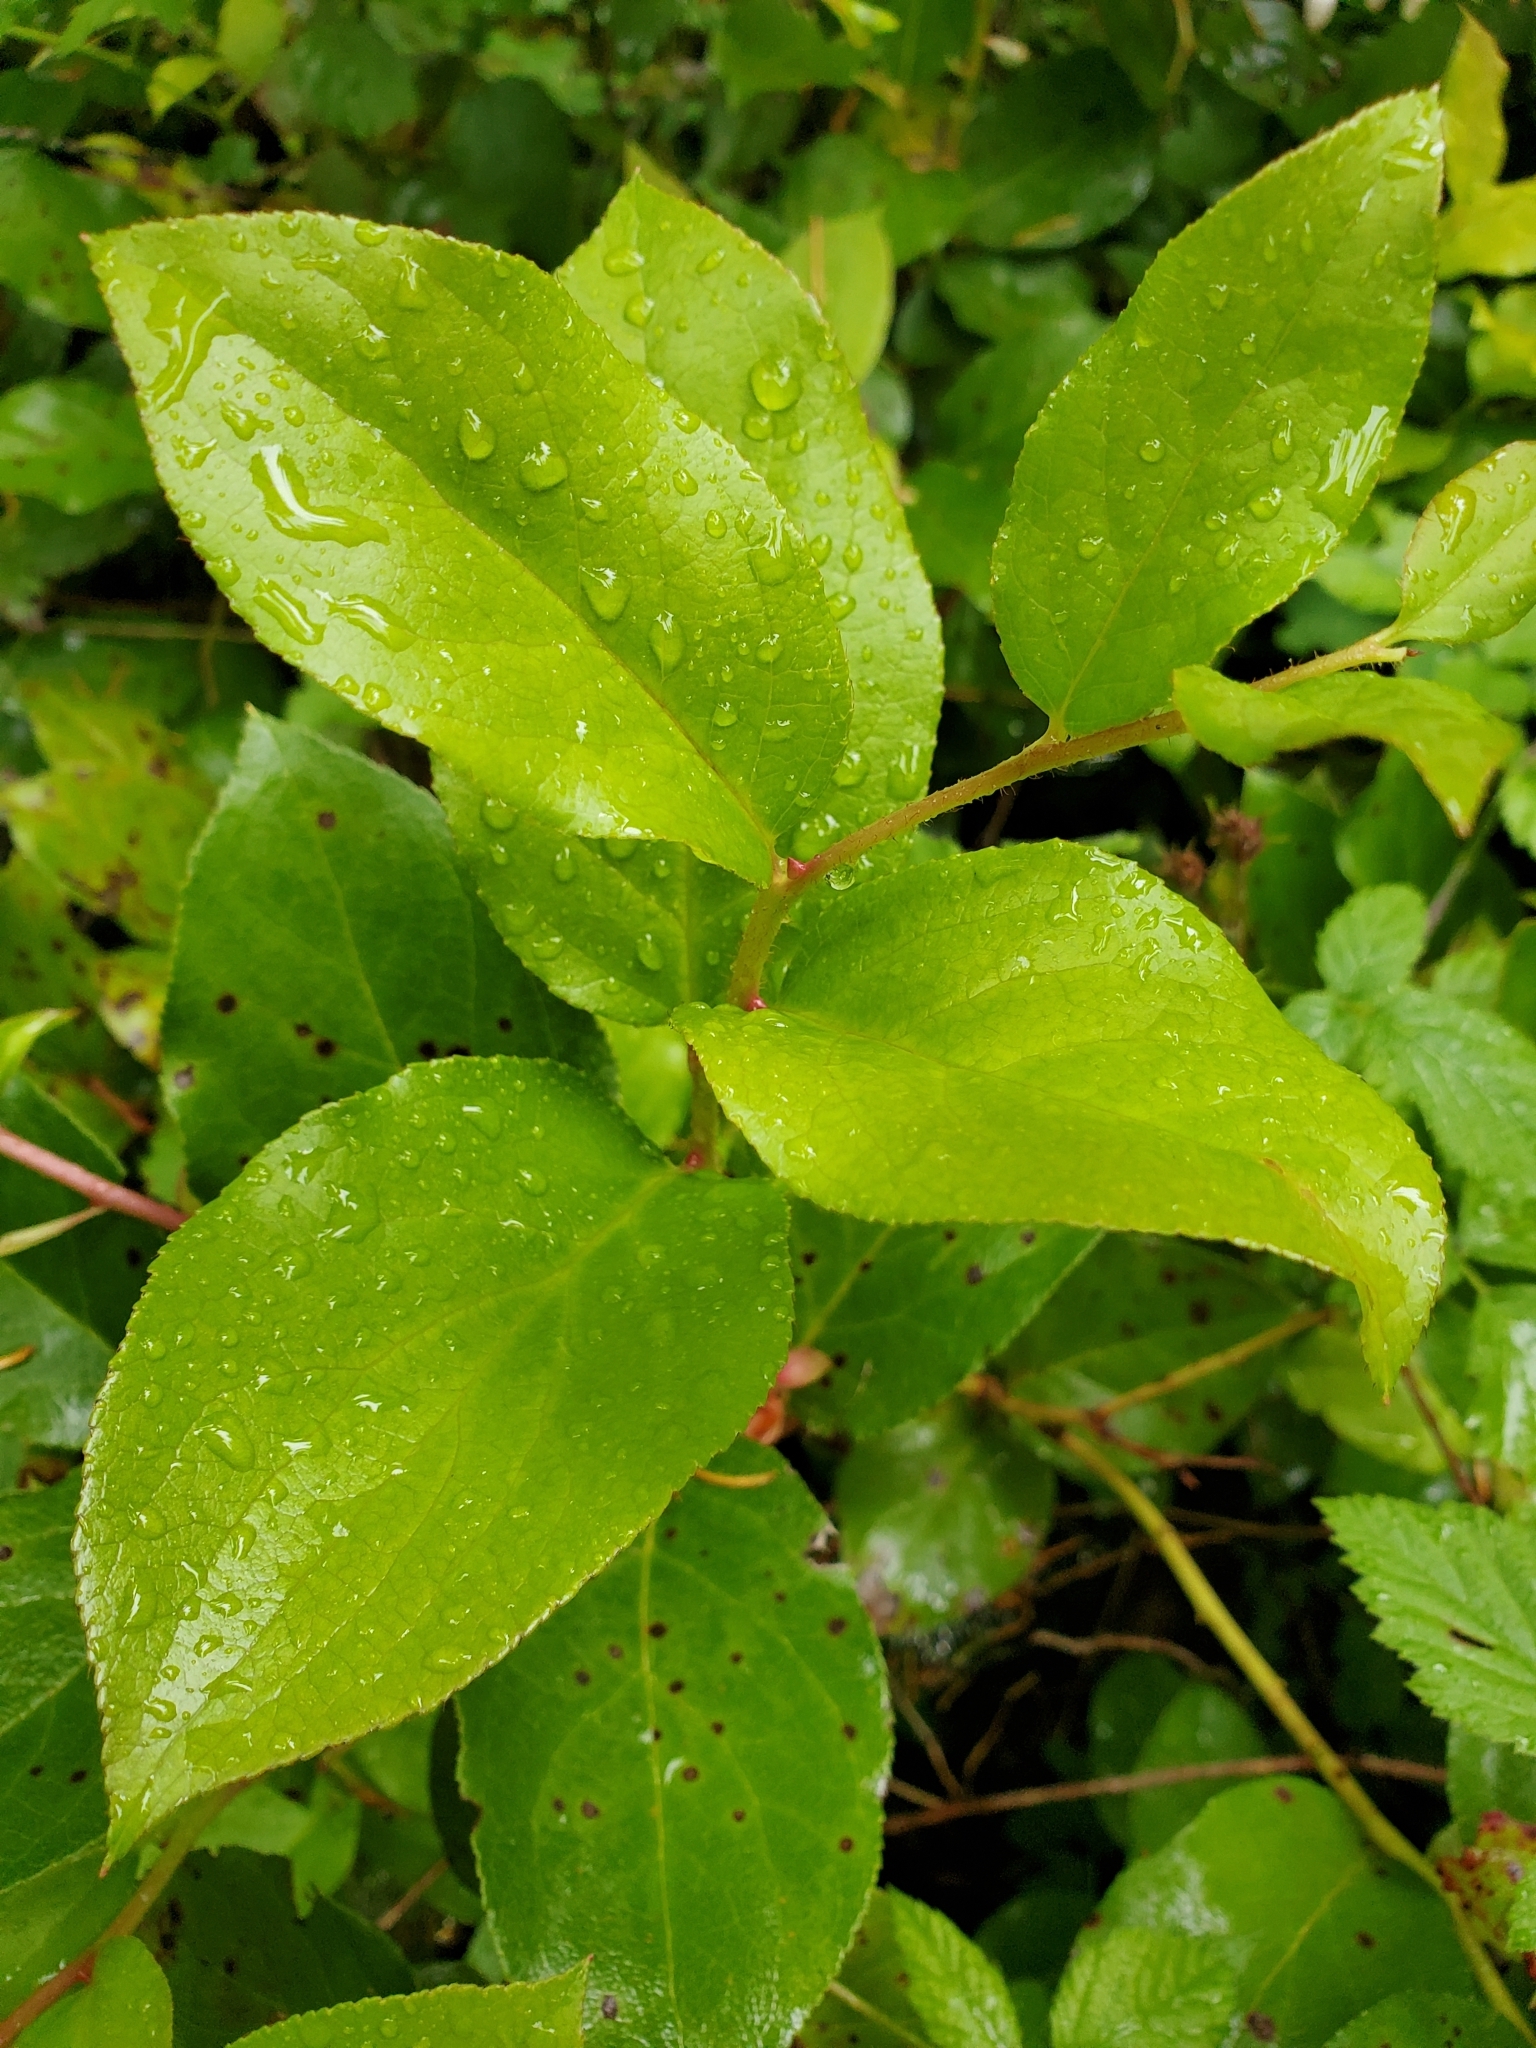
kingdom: Plantae
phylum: Tracheophyta
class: Magnoliopsida
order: Ericales
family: Ericaceae
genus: Gaultheria
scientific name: Gaultheria shallon
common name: Shallon
